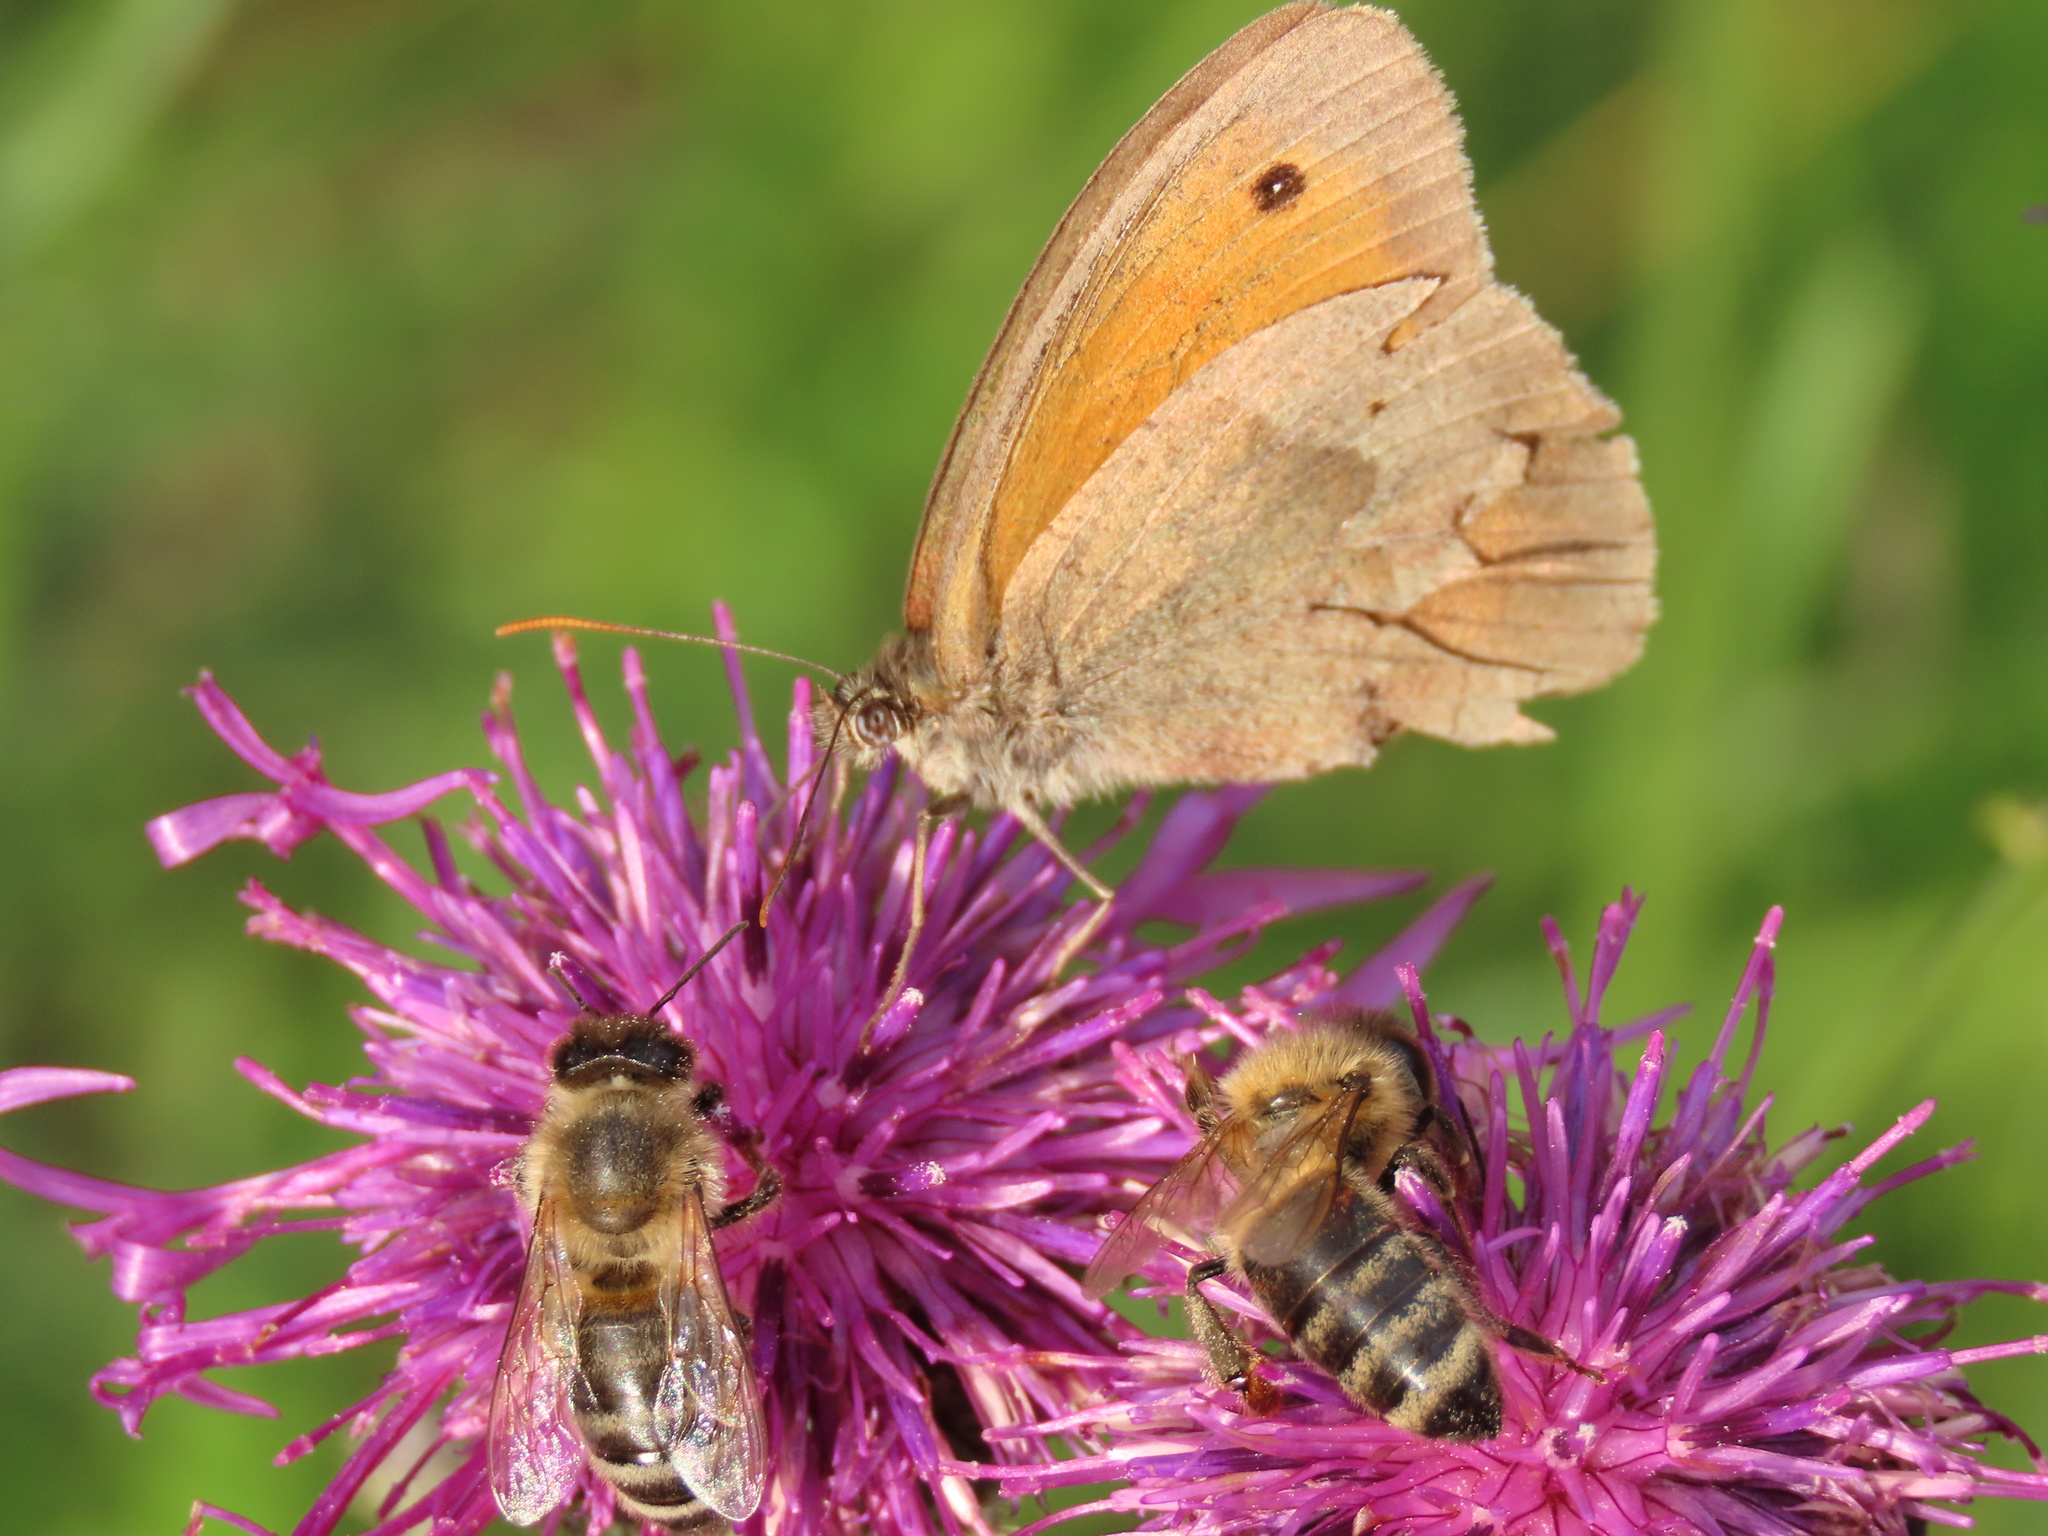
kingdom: Animalia
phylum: Arthropoda
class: Insecta
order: Lepidoptera
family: Nymphalidae
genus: Maniola
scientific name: Maniola jurtina
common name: Meadow brown
